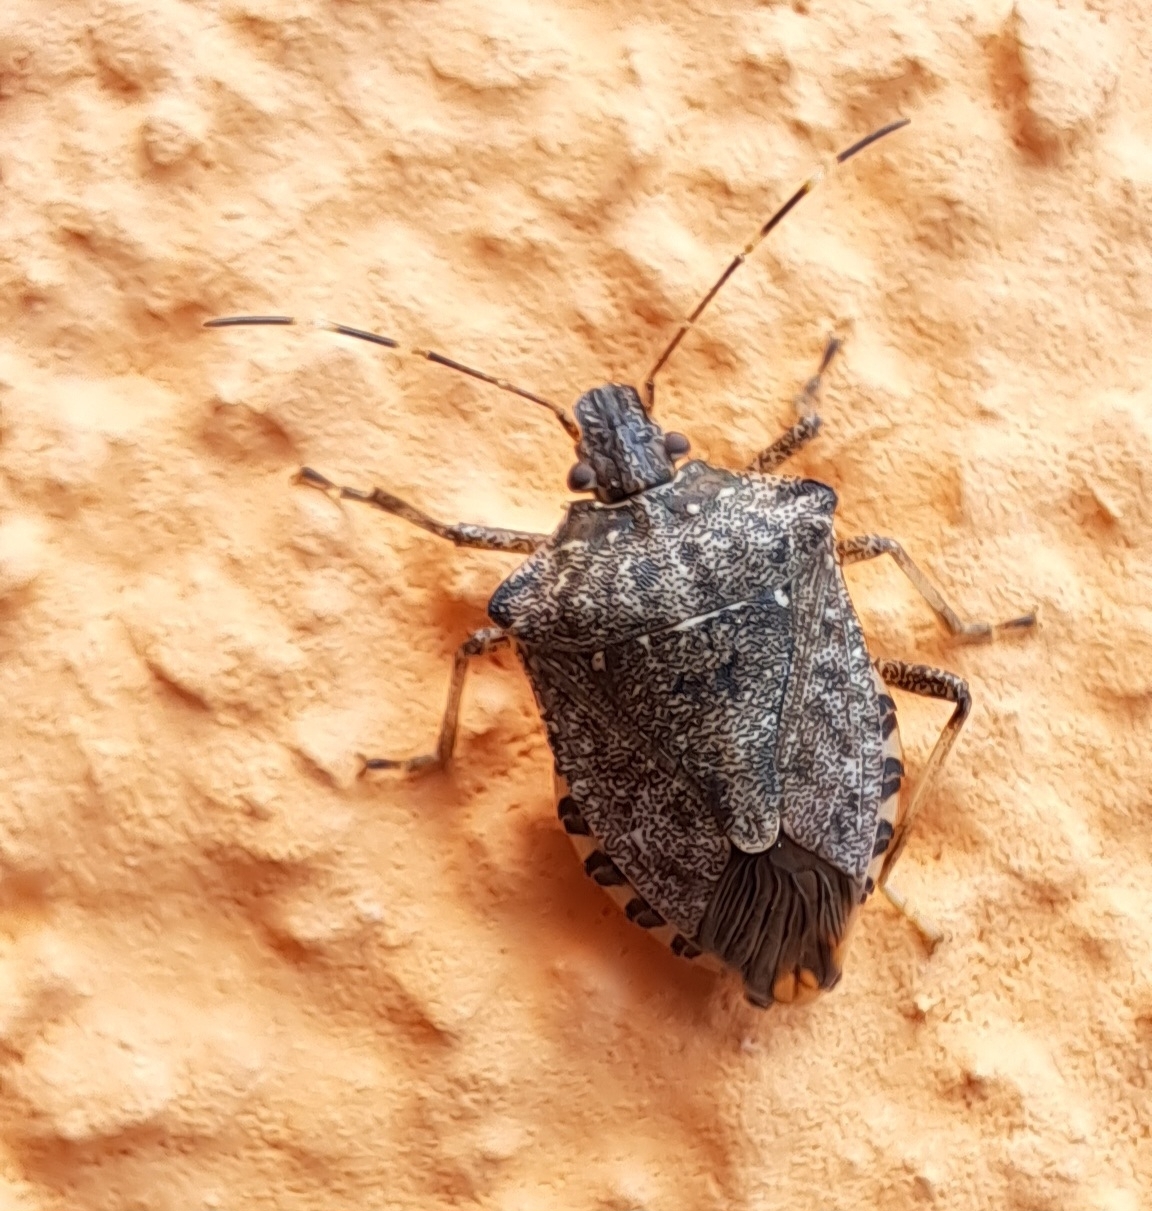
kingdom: Animalia
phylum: Arthropoda
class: Insecta
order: Hemiptera
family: Pentatomidae
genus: Halyomorpha
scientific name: Halyomorpha halys
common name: Brown marmorated stink bug
